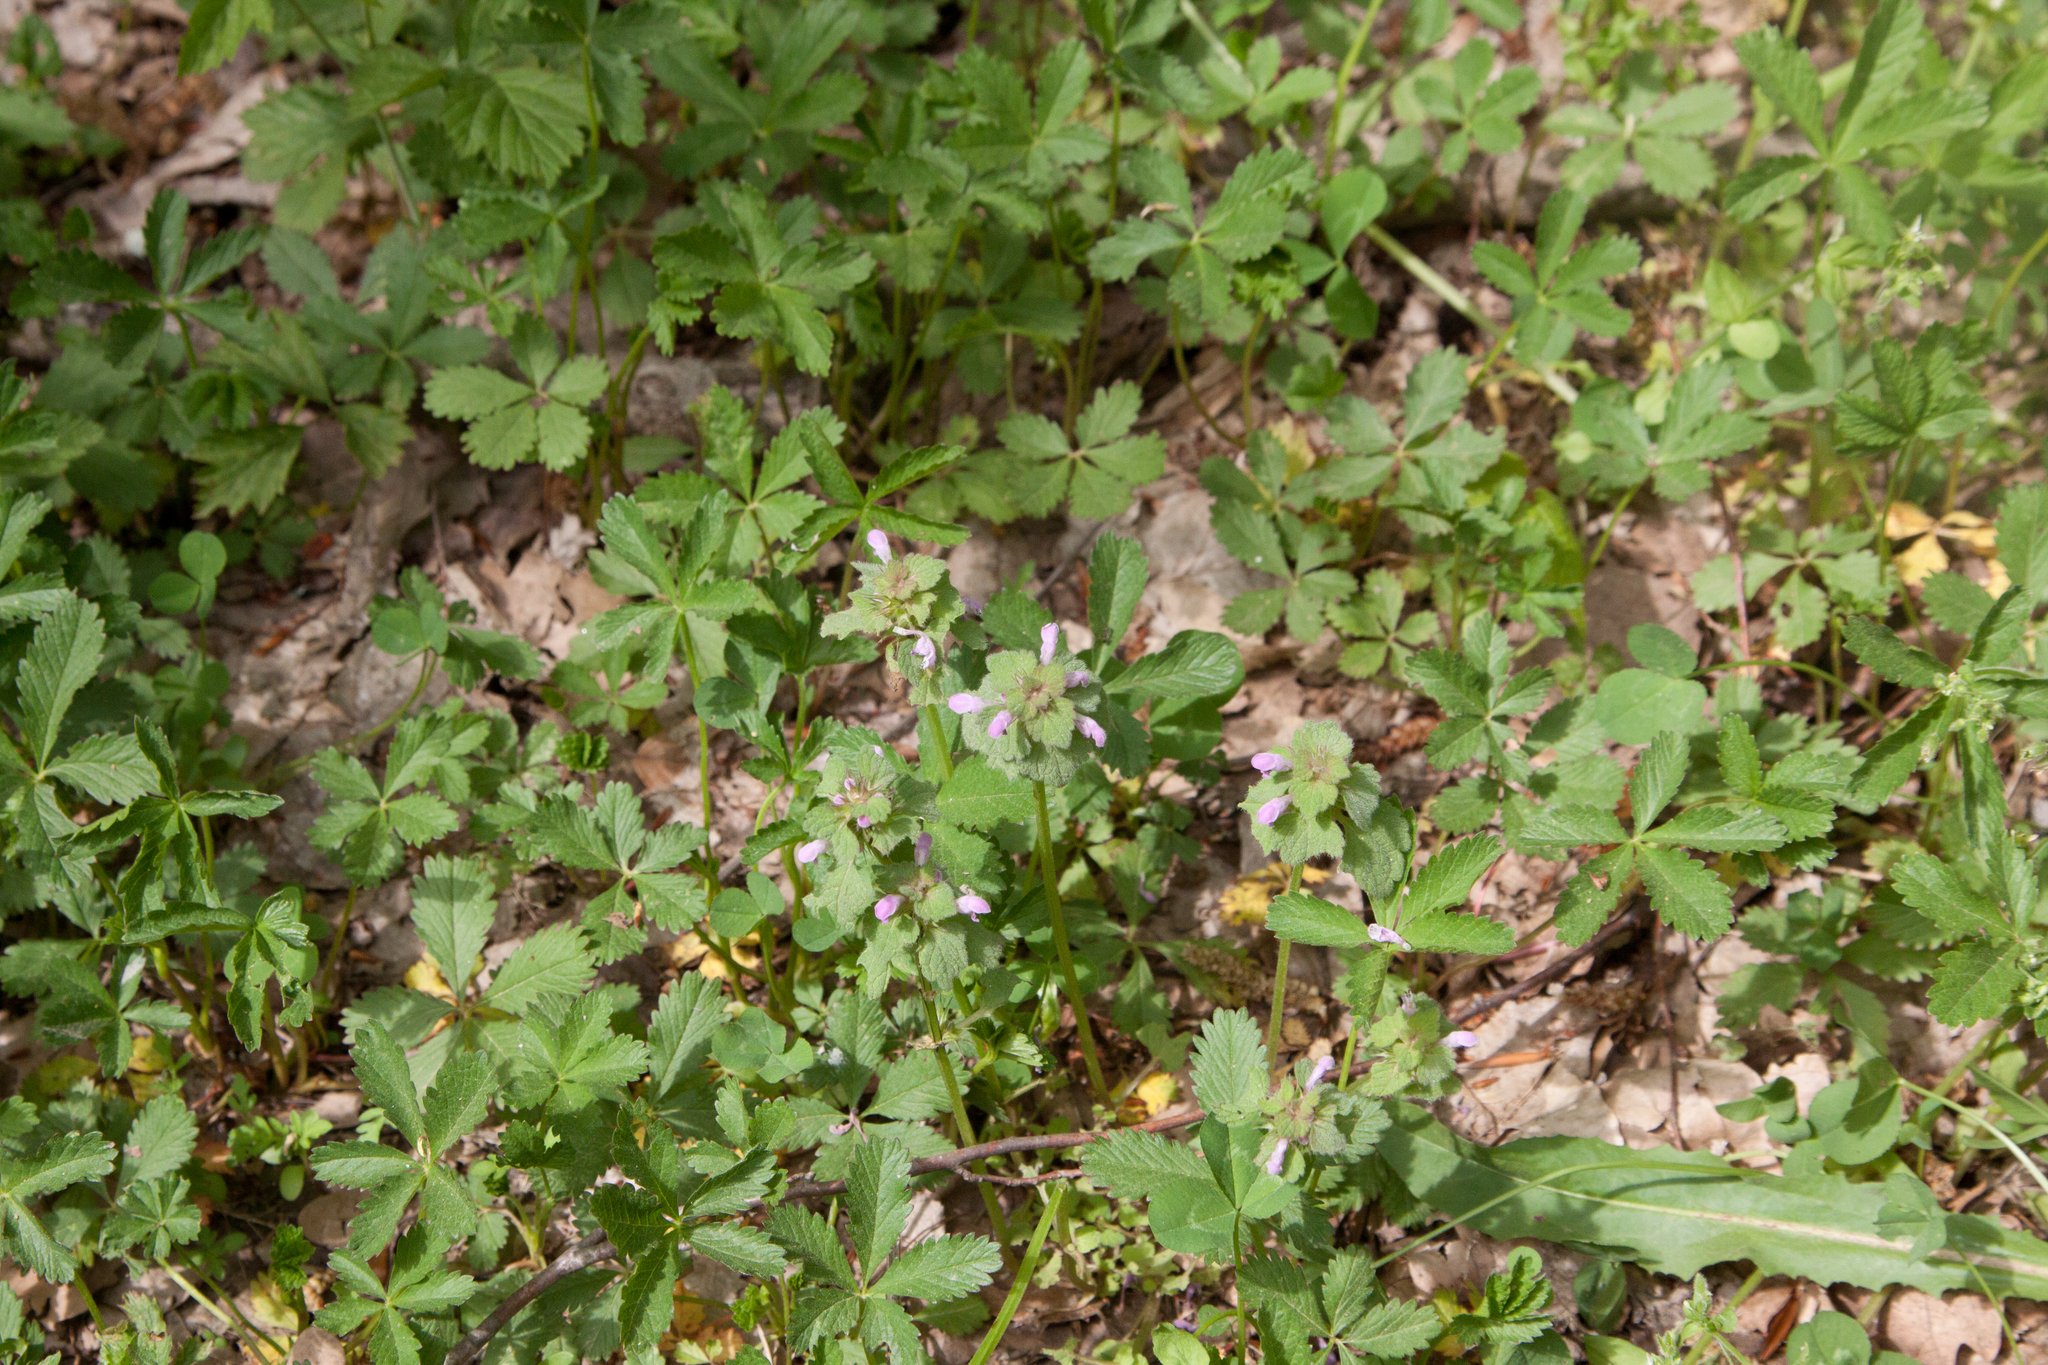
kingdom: Plantae
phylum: Tracheophyta
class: Magnoliopsida
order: Lamiales
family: Lamiaceae
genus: Lamium
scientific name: Lamium purpureum
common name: Red dead-nettle
